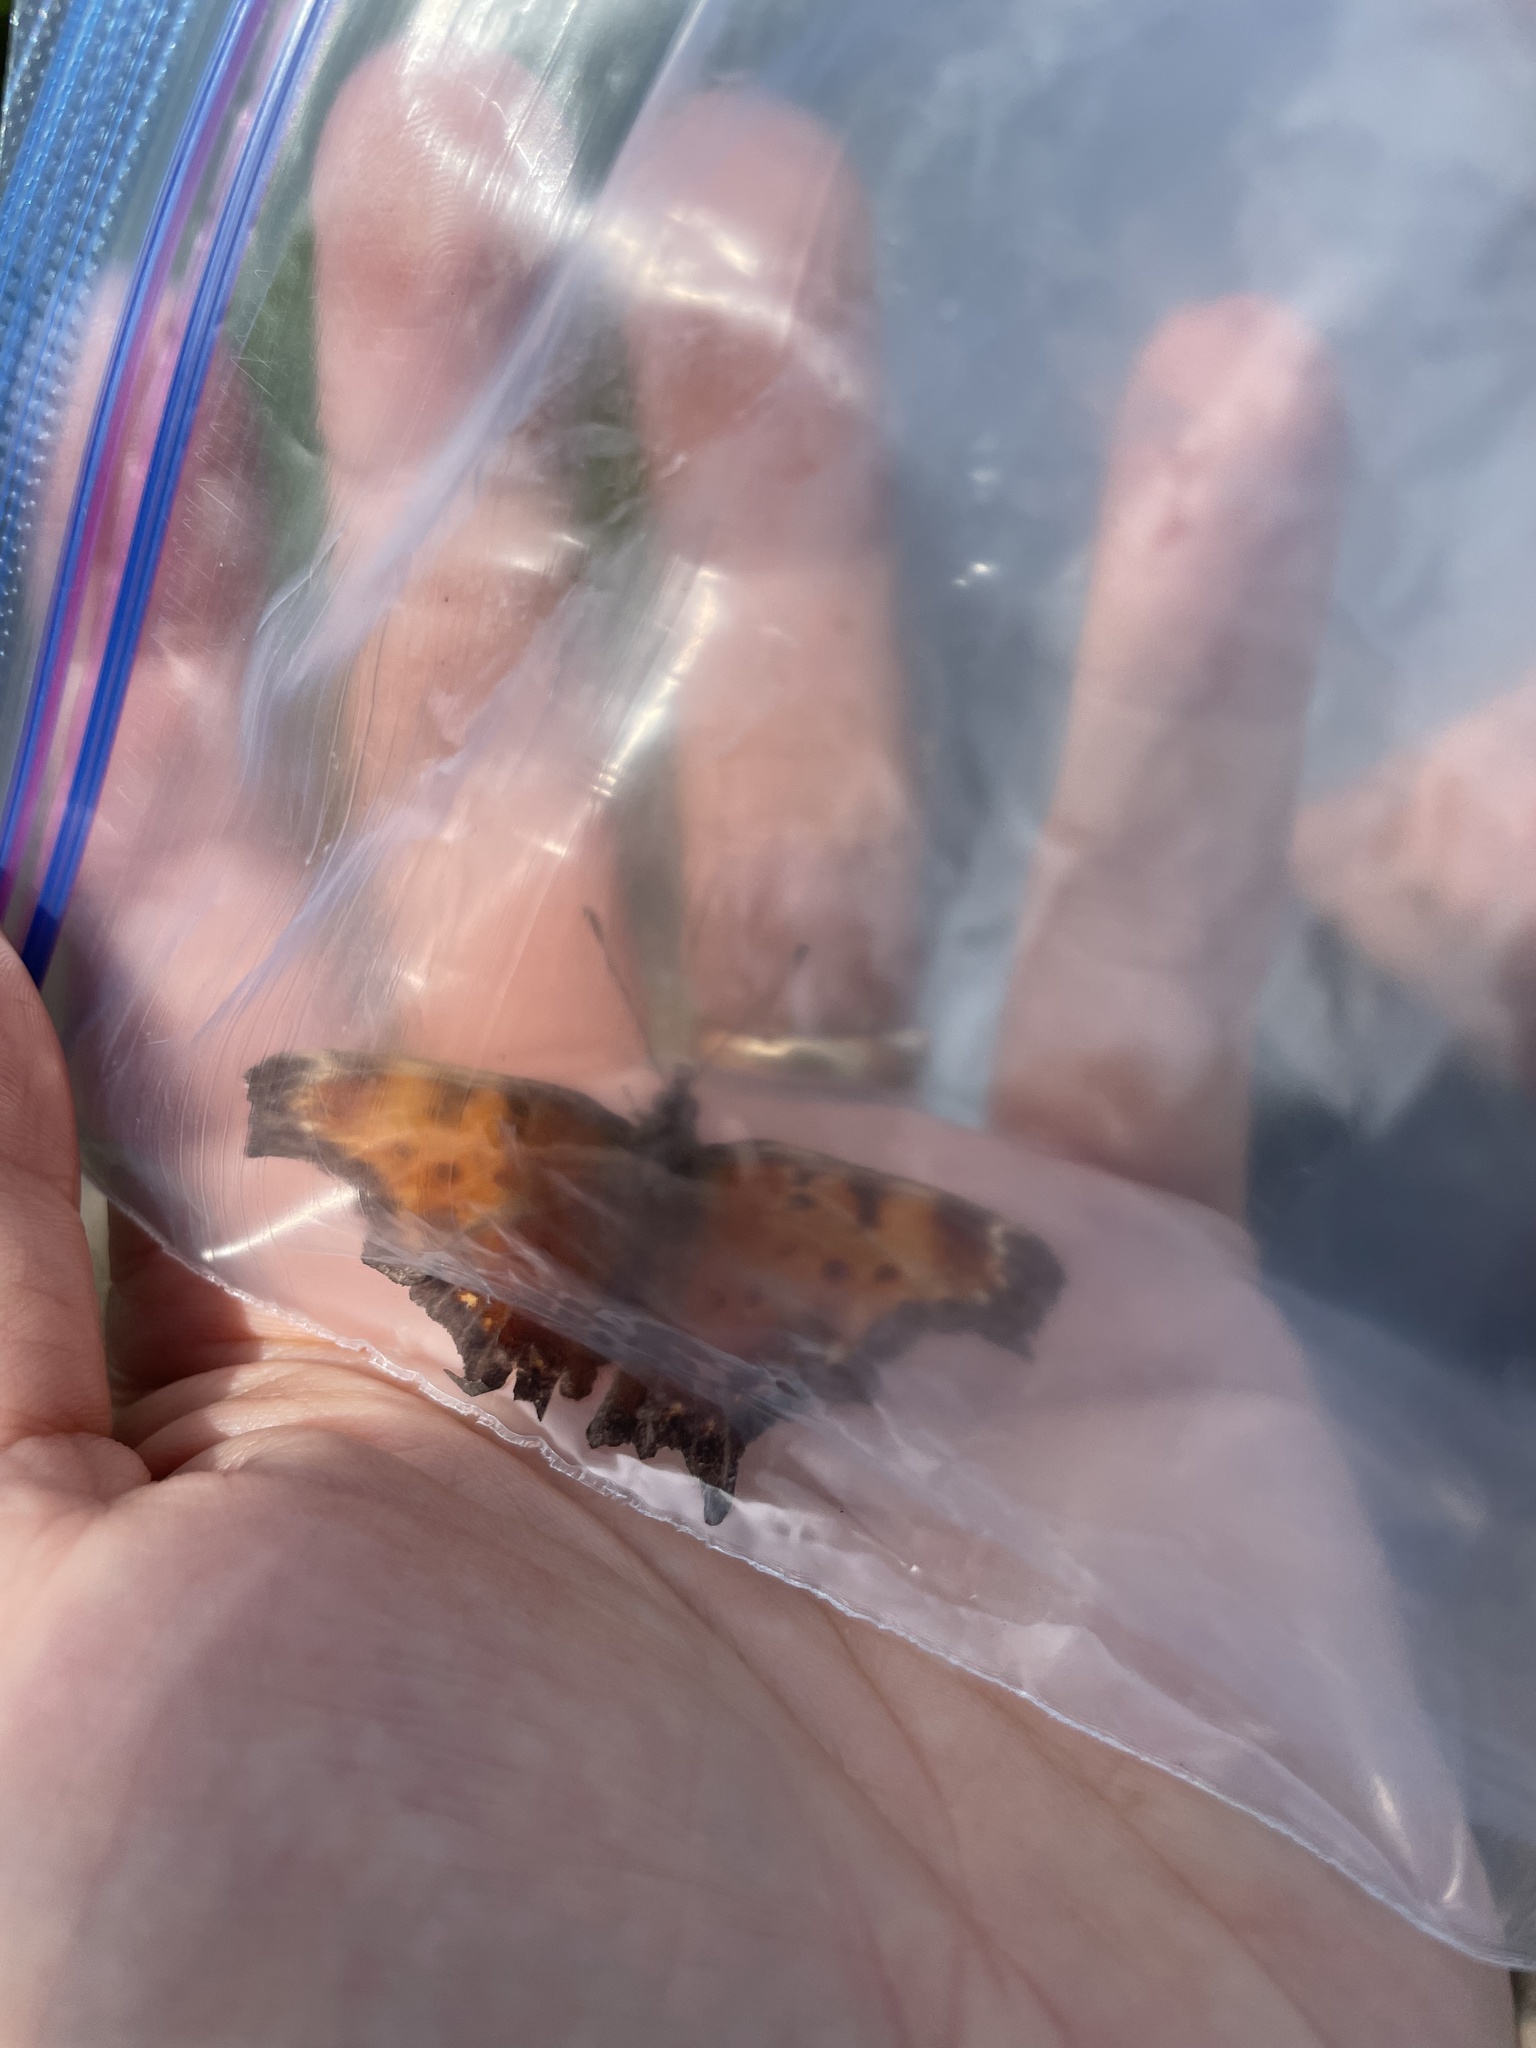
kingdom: Animalia
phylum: Arthropoda
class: Insecta
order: Lepidoptera
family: Nymphalidae
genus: Polygonia
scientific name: Polygonia progne
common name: Gray comma
